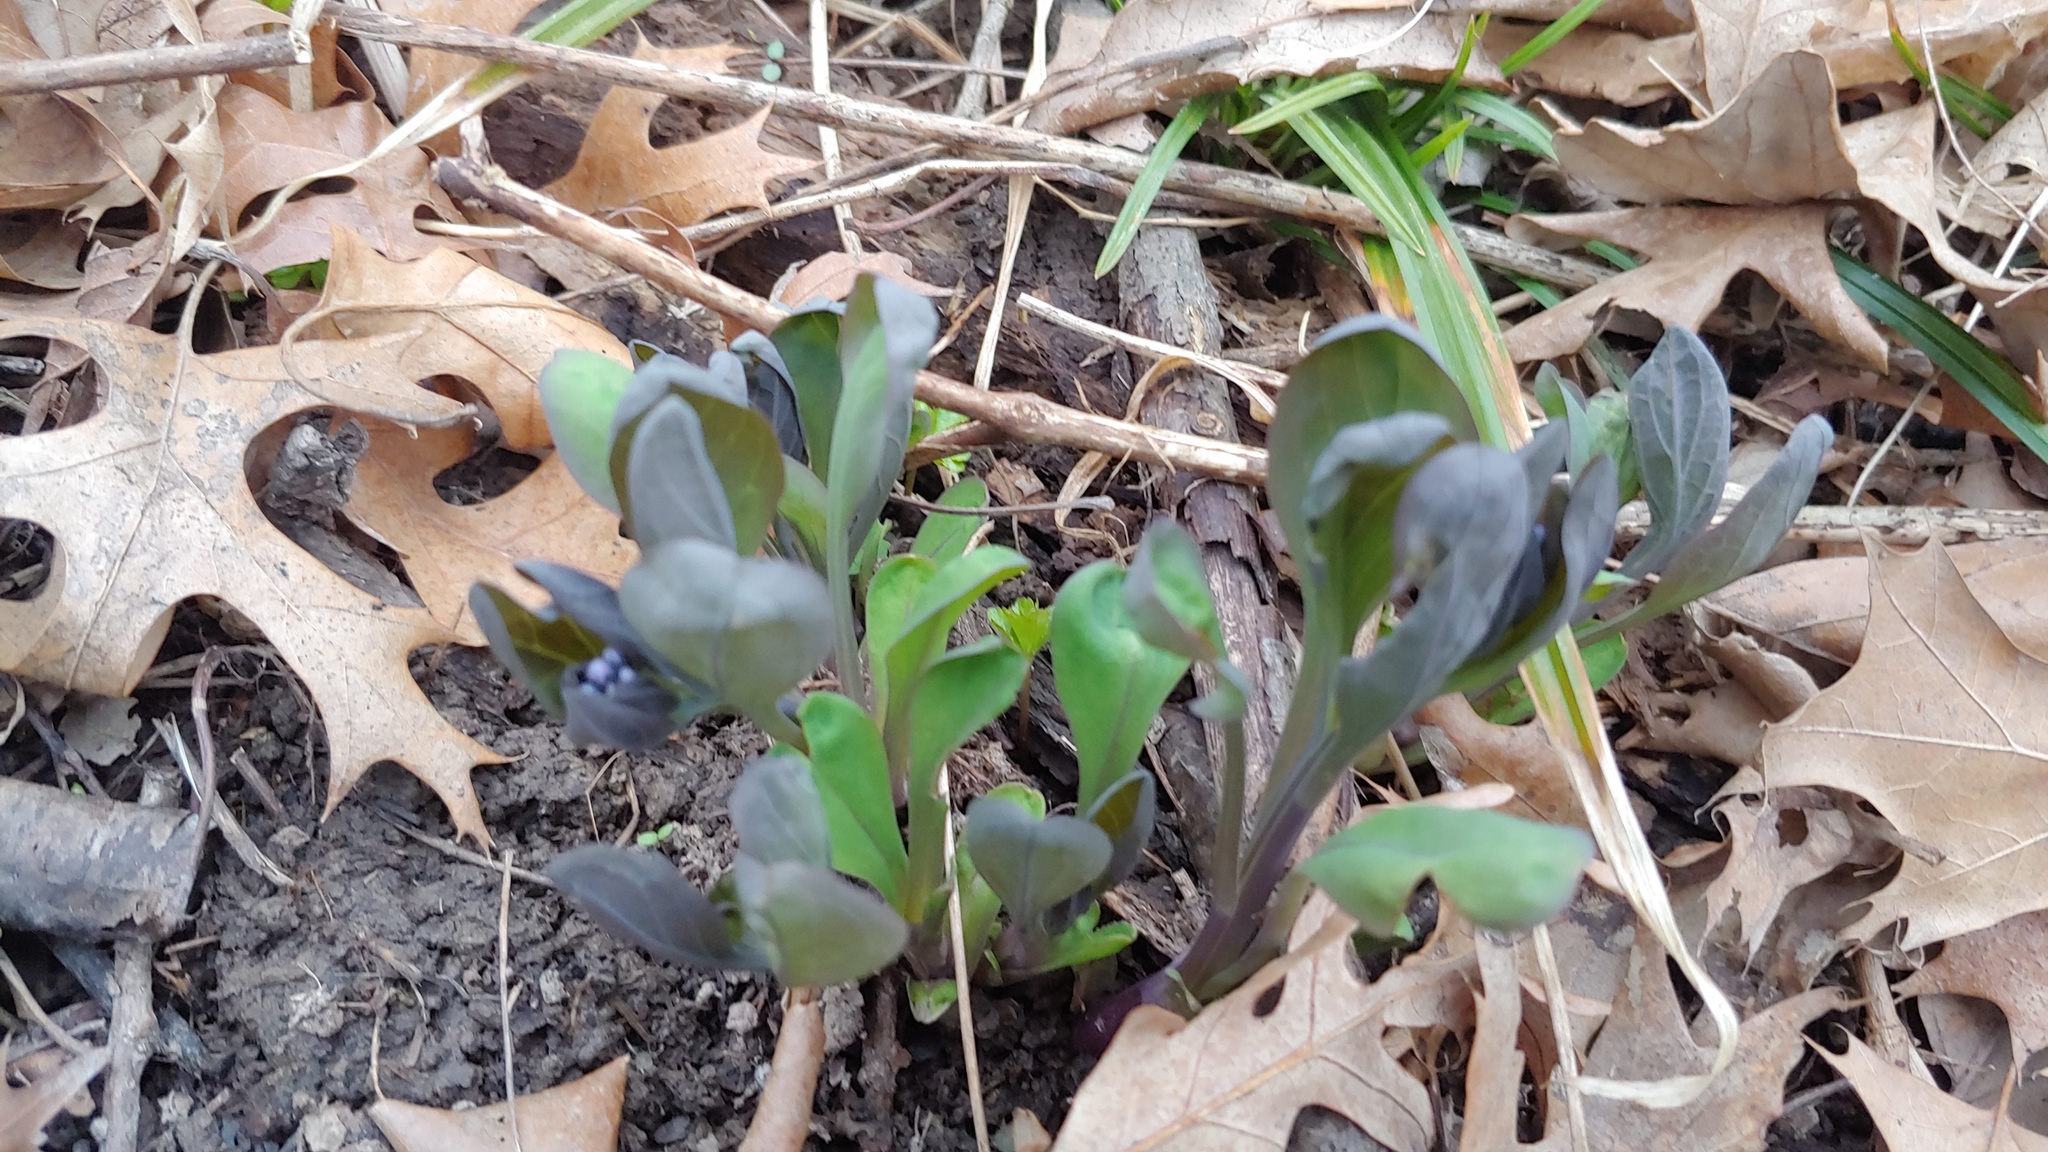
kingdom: Plantae
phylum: Tracheophyta
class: Magnoliopsida
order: Boraginales
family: Boraginaceae
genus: Mertensia
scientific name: Mertensia virginica
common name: Virginia bluebells
